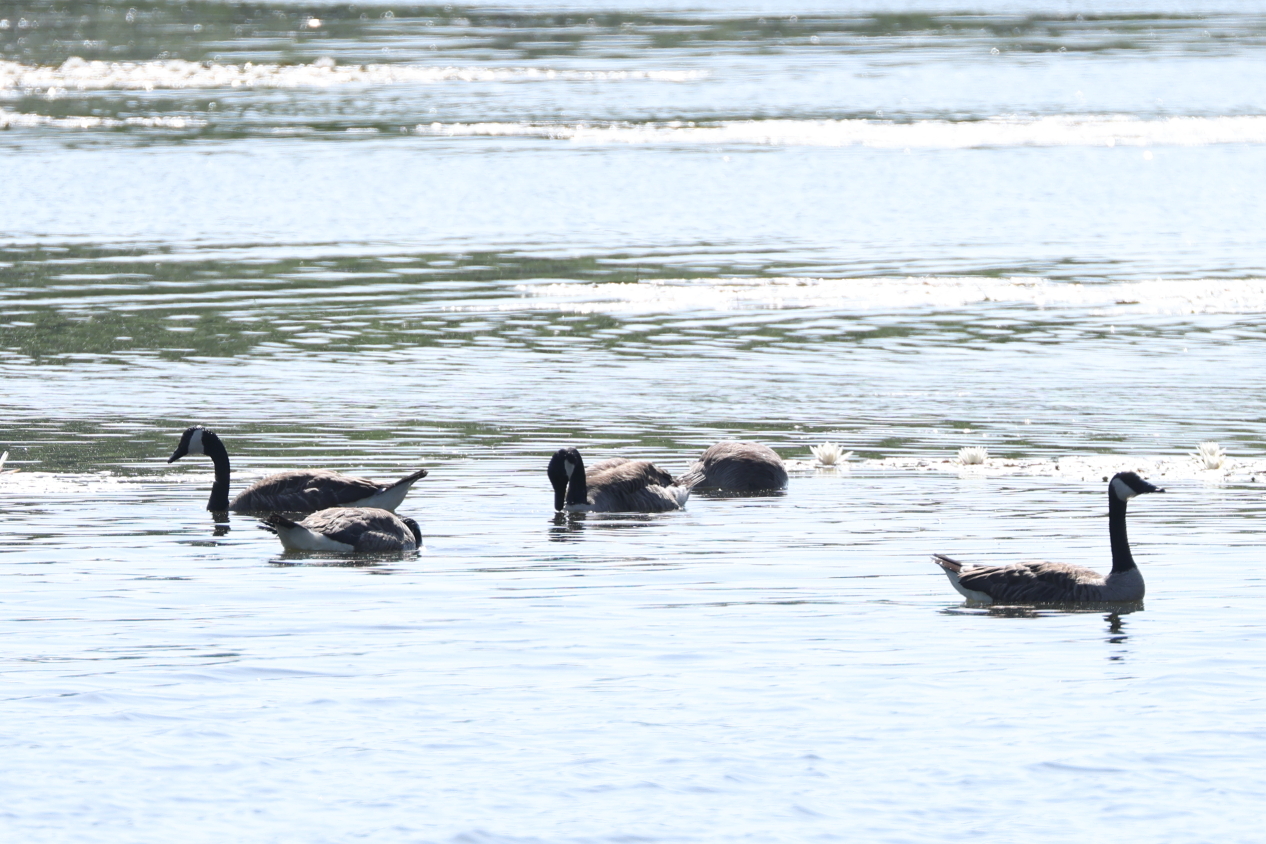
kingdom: Animalia
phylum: Chordata
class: Aves
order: Anseriformes
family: Anatidae
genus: Branta
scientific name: Branta canadensis
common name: Canada goose
